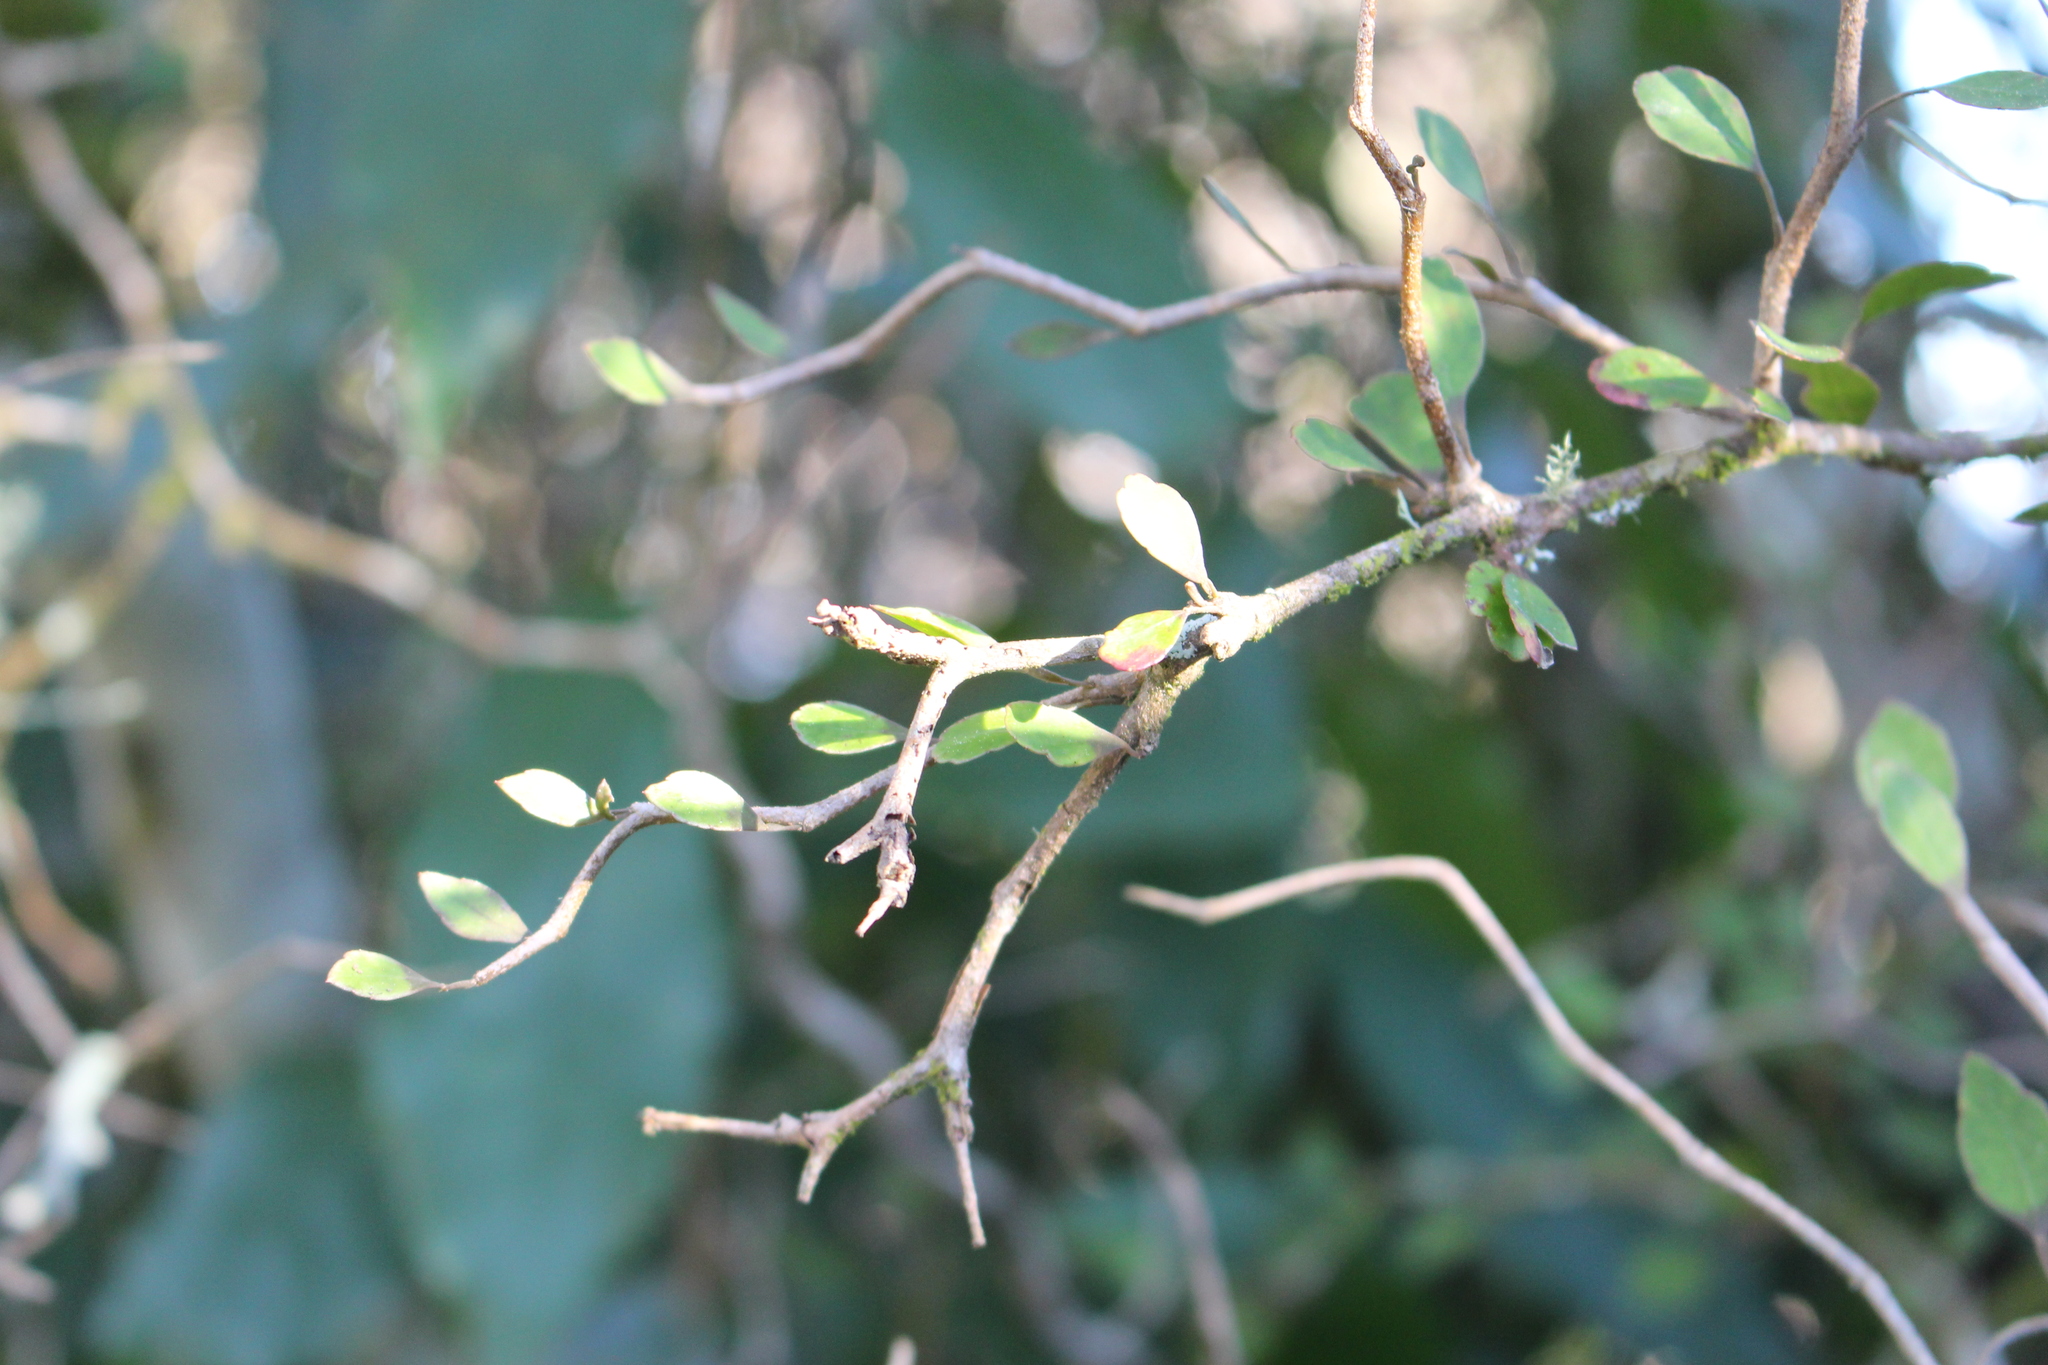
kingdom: Plantae
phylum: Tracheophyta
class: Magnoliopsida
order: Apiales
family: Araliaceae
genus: Raukaua
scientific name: Raukaua anomalus
